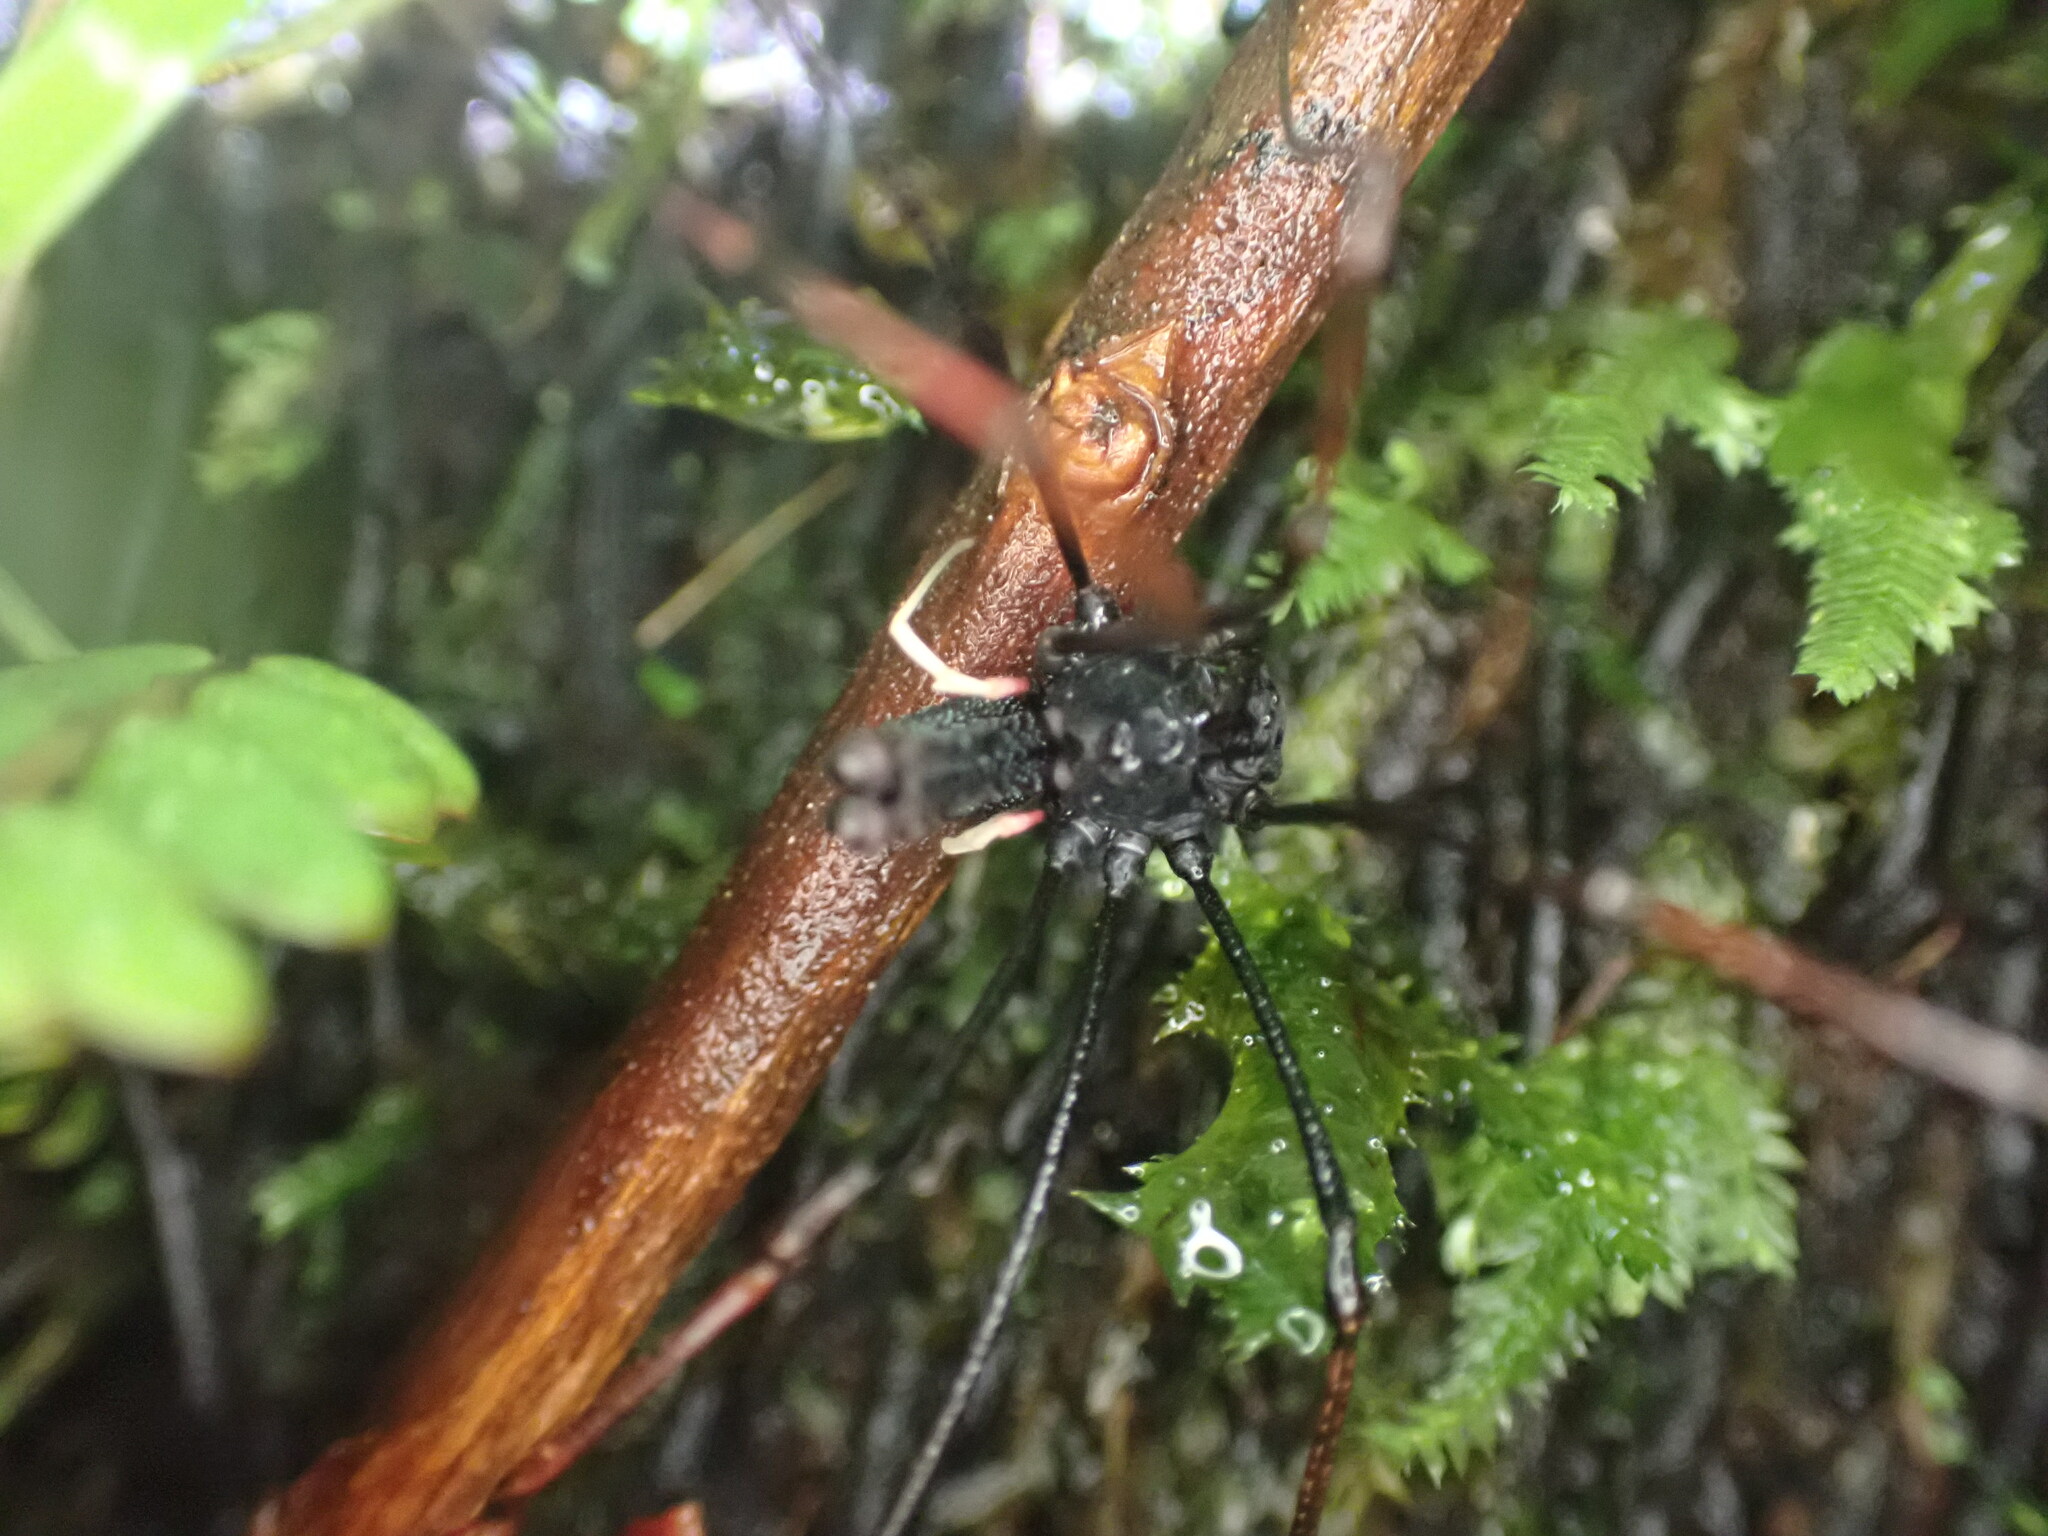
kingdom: Animalia
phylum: Arthropoda
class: Arachnida
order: Opiliones
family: Neopilionidae
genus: Forsteropsalis
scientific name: Forsteropsalis inconstans
